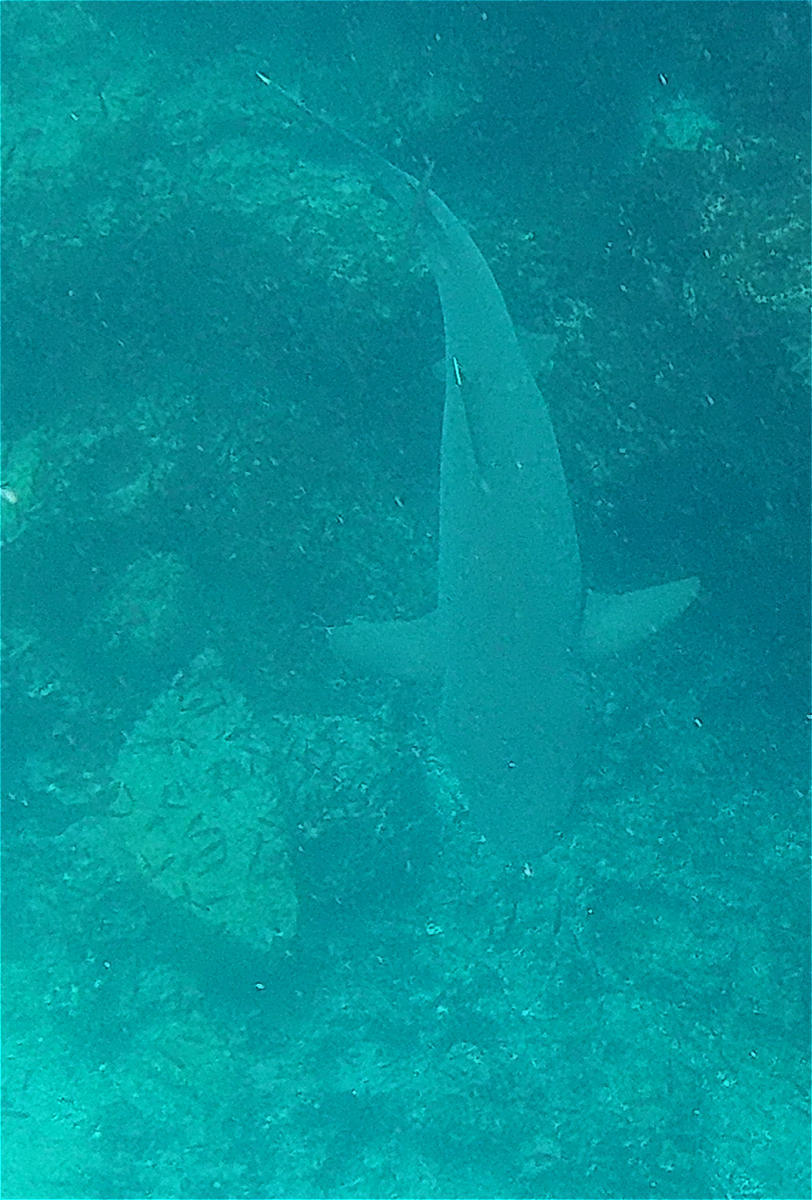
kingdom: Animalia
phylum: Chordata
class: Elasmobranchii
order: Carcharhiniformes
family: Carcharhinidae
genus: Triaenodon
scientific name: Triaenodon obesus
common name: Whitetip reef shark
